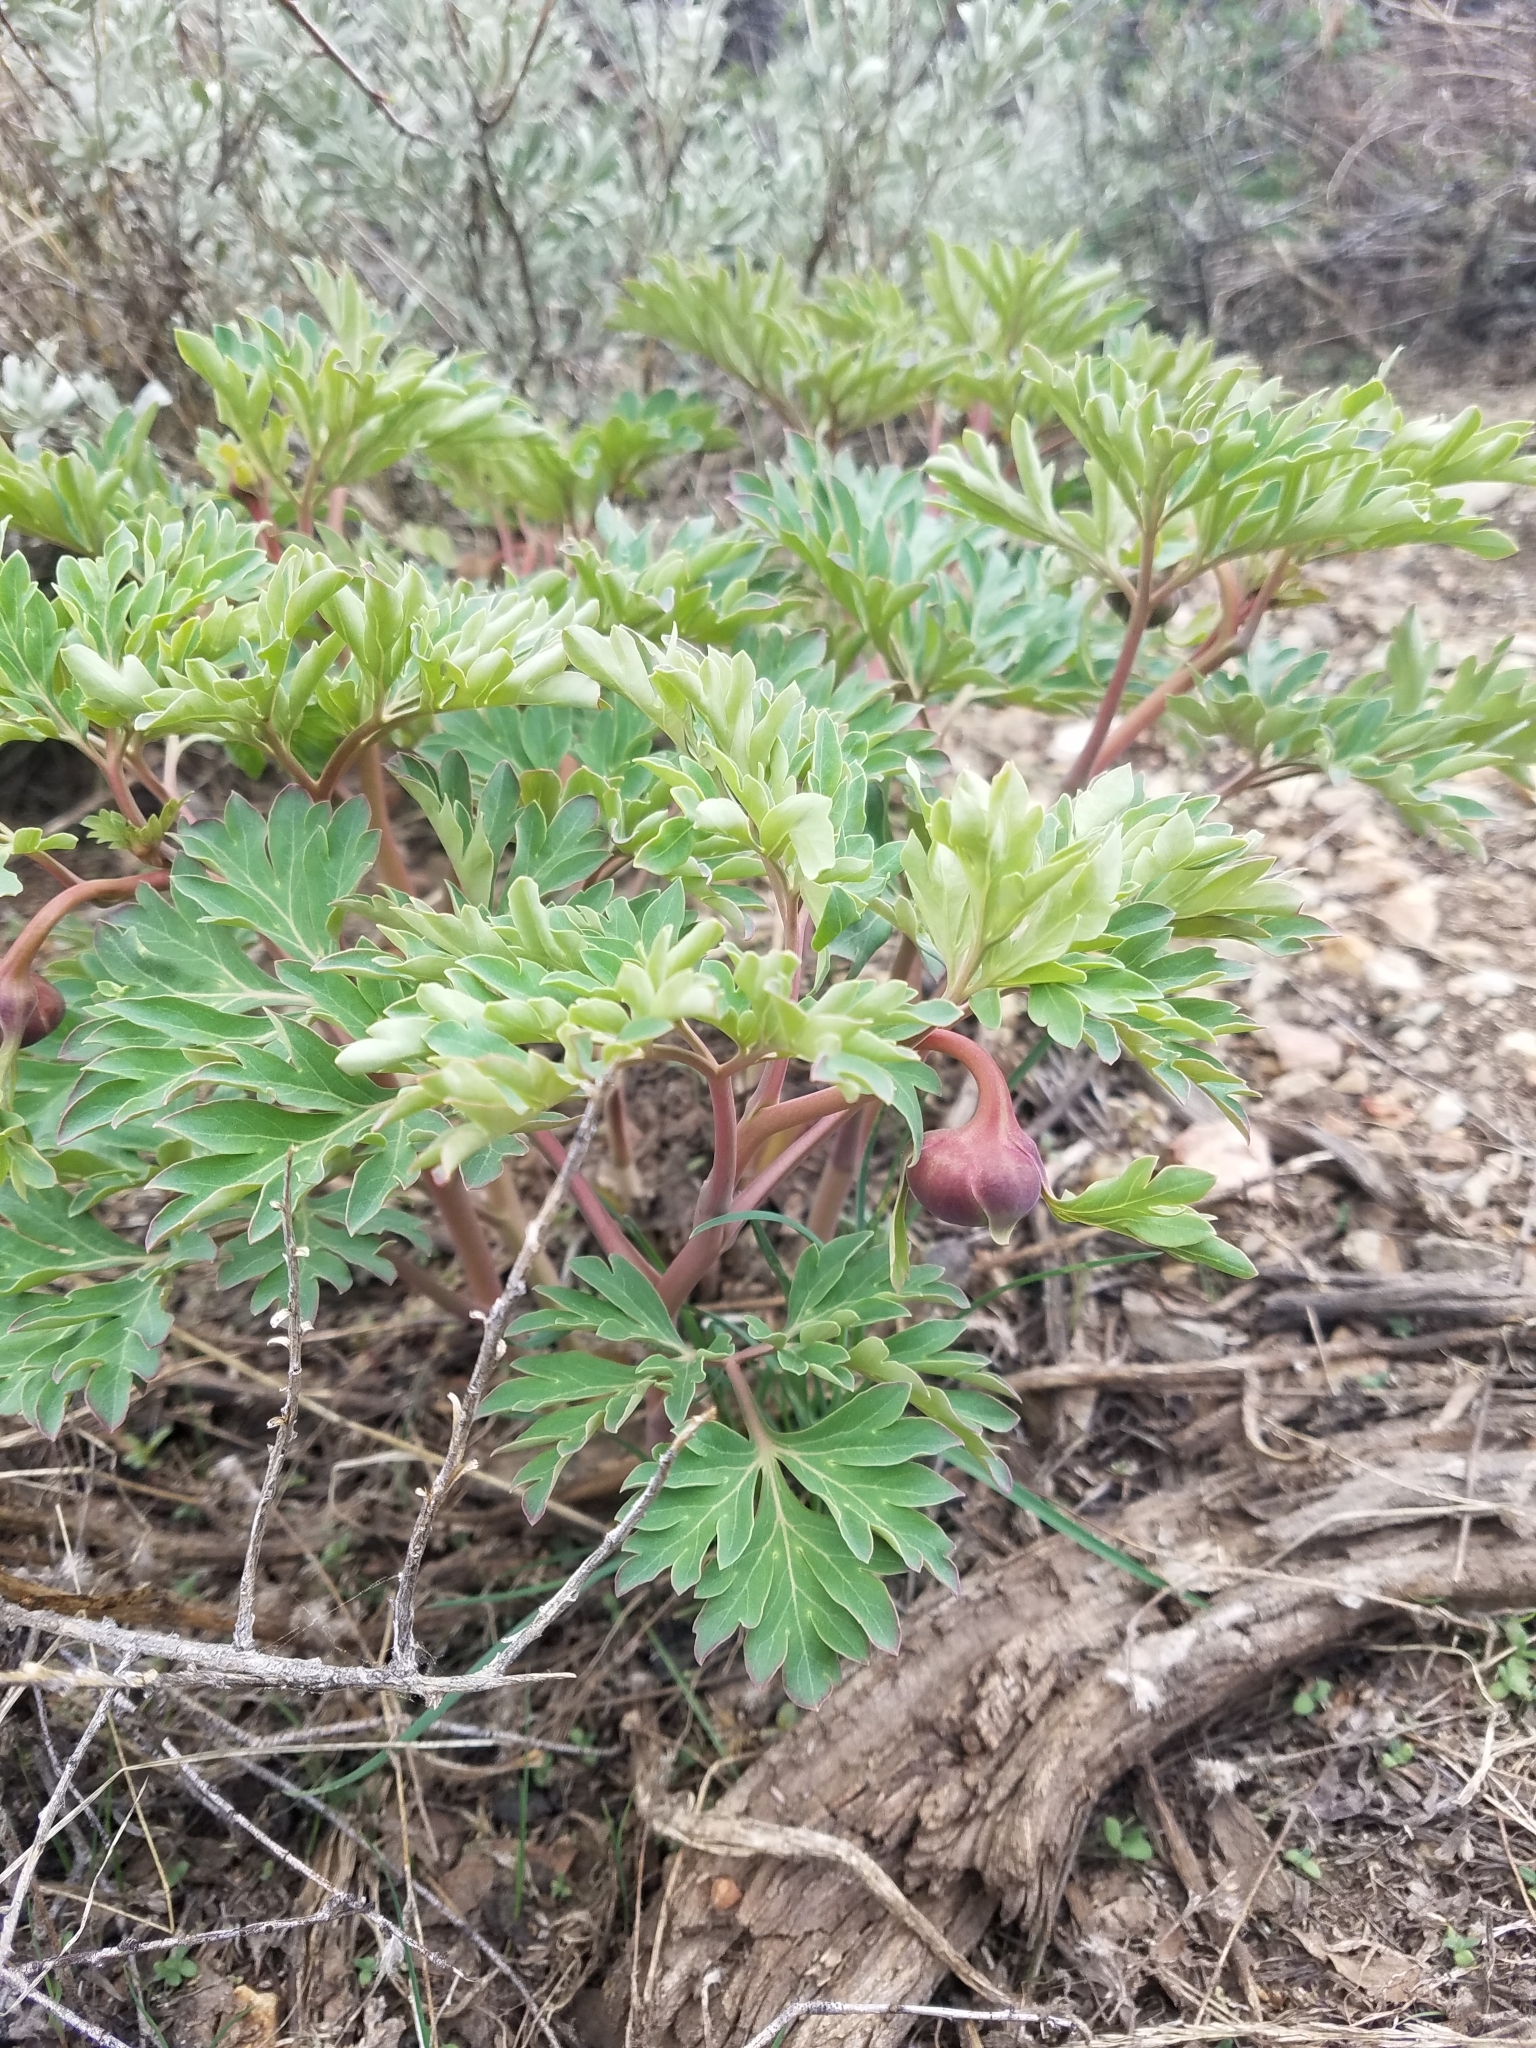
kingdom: Plantae
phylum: Tracheophyta
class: Magnoliopsida
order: Saxifragales
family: Paeoniaceae
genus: Paeonia
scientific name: Paeonia brownii
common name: Brown's peony
